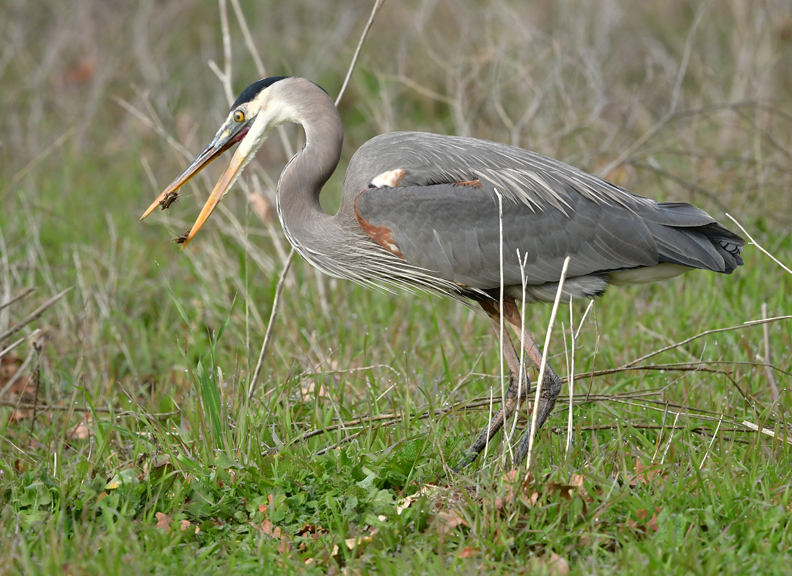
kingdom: Animalia
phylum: Chordata
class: Aves
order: Pelecaniformes
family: Ardeidae
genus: Ardea
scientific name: Ardea herodias
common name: Great blue heron
